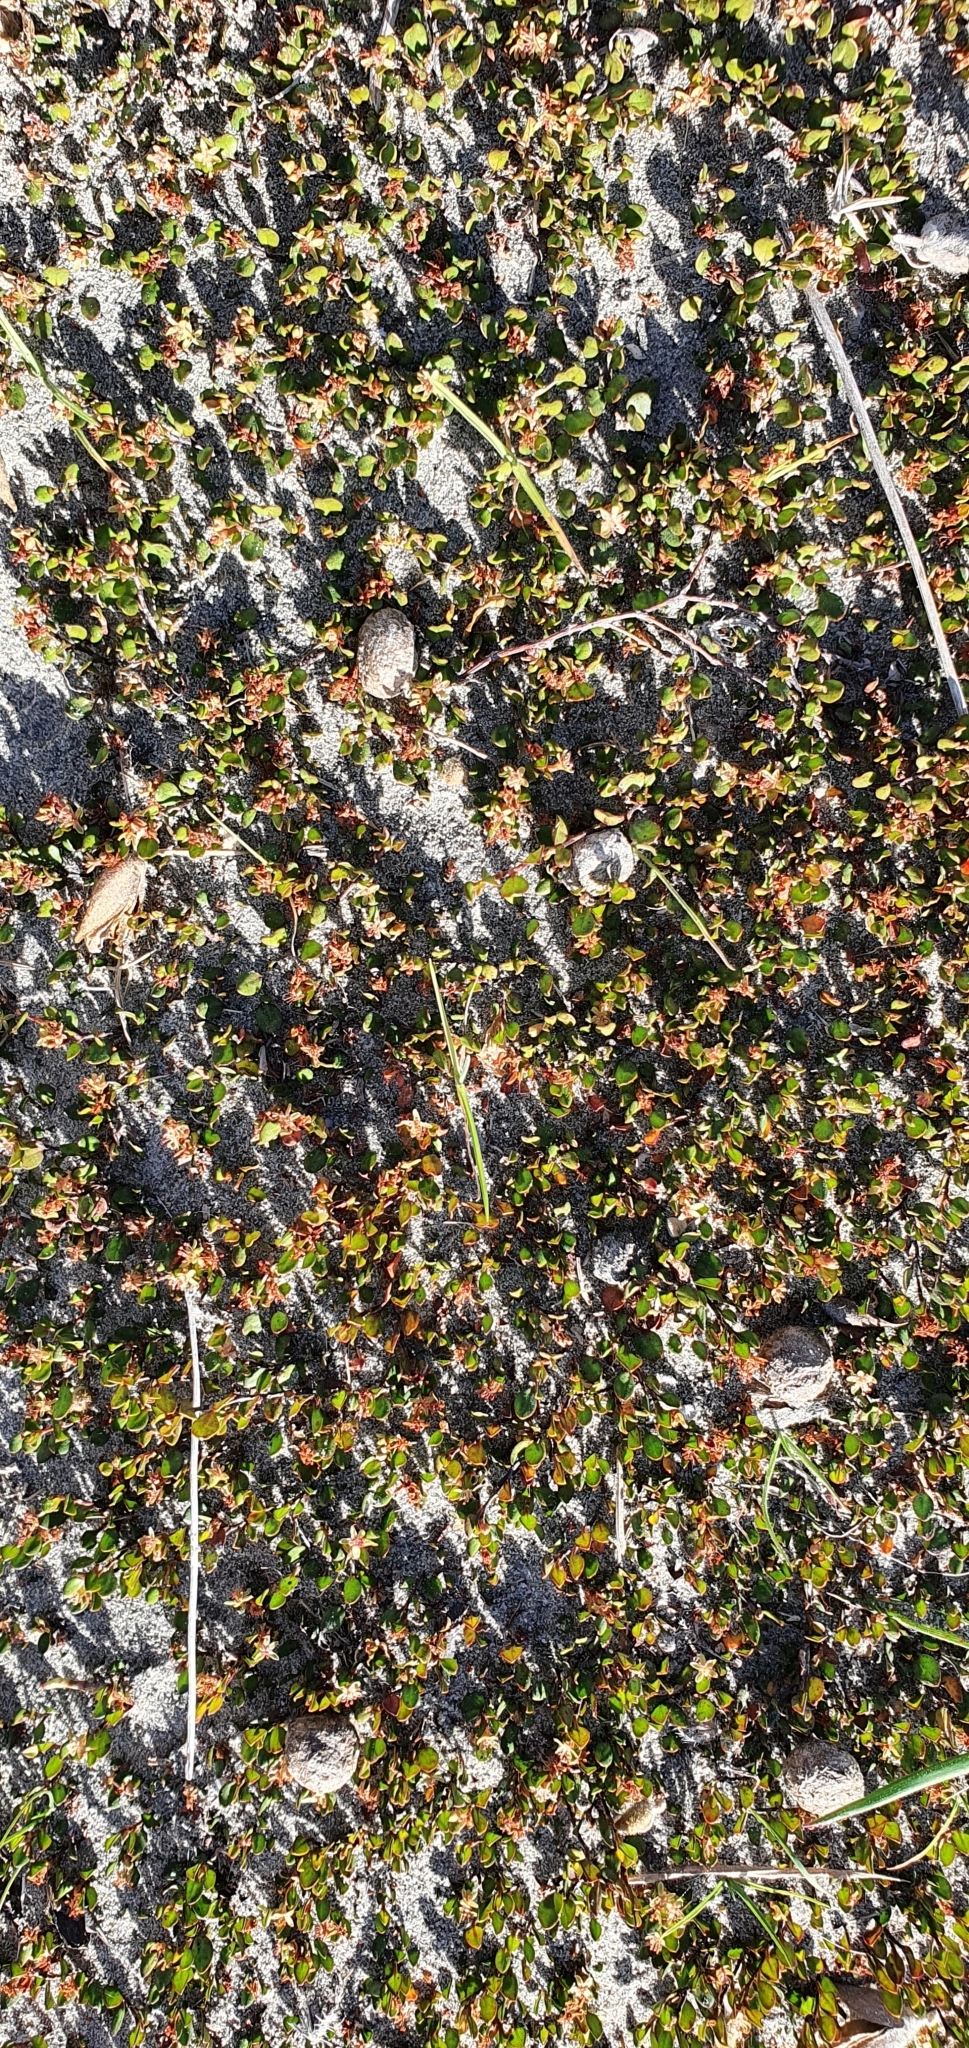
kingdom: Plantae
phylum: Tracheophyta
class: Magnoliopsida
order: Caryophyllales
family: Polygonaceae
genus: Muehlenbeckia
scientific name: Muehlenbeckia axillaris
